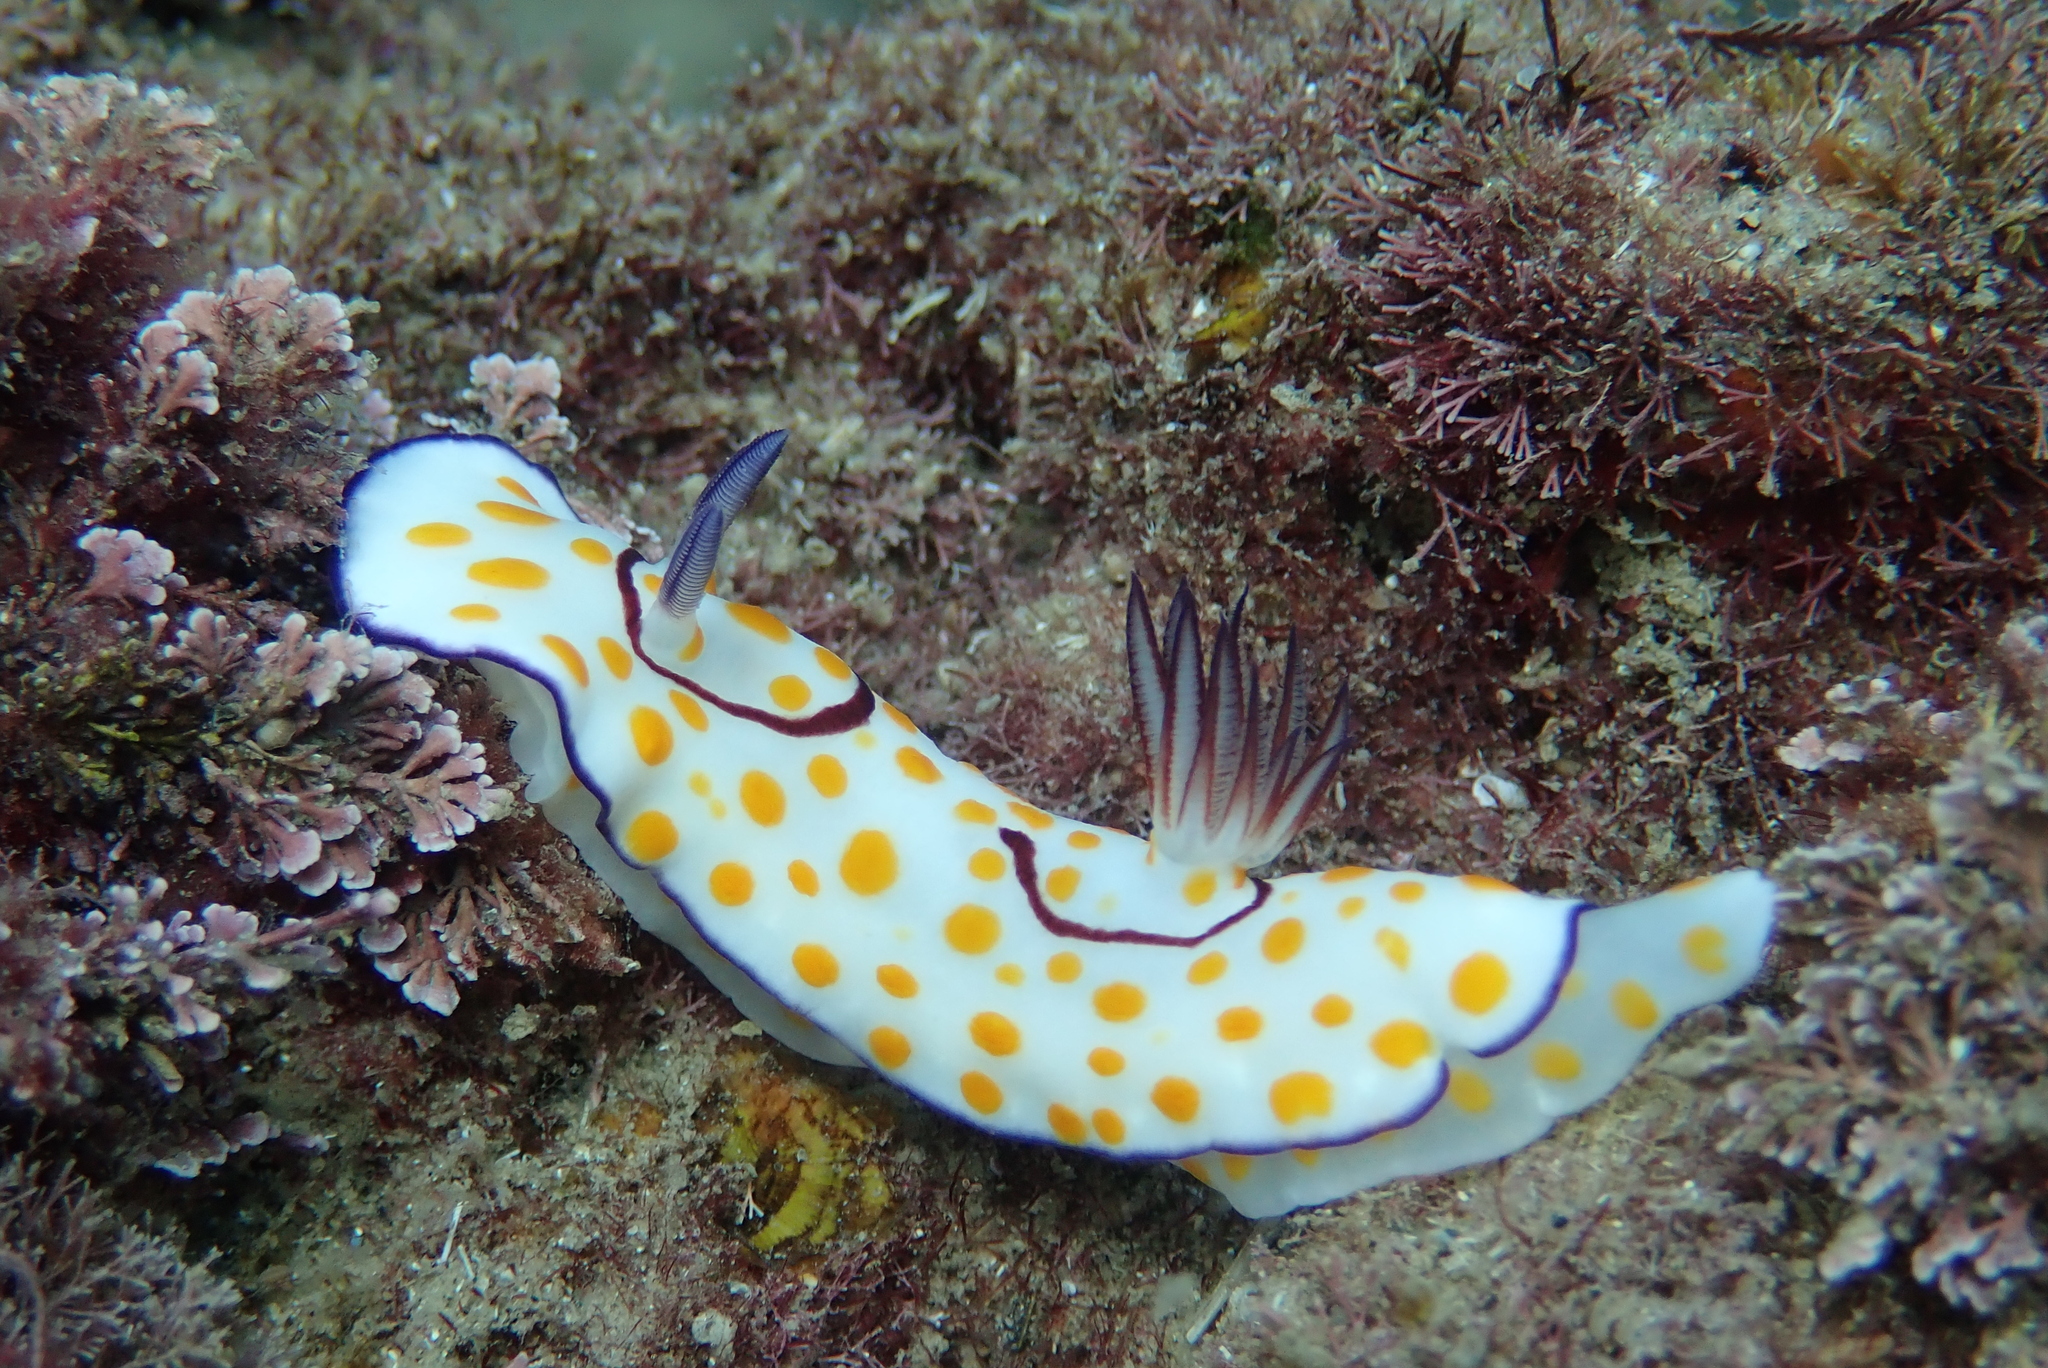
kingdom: Animalia
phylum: Mollusca
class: Gastropoda
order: Nudibranchia
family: Chromodorididae
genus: Goniobranchus
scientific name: Goniobranchus annulatus
